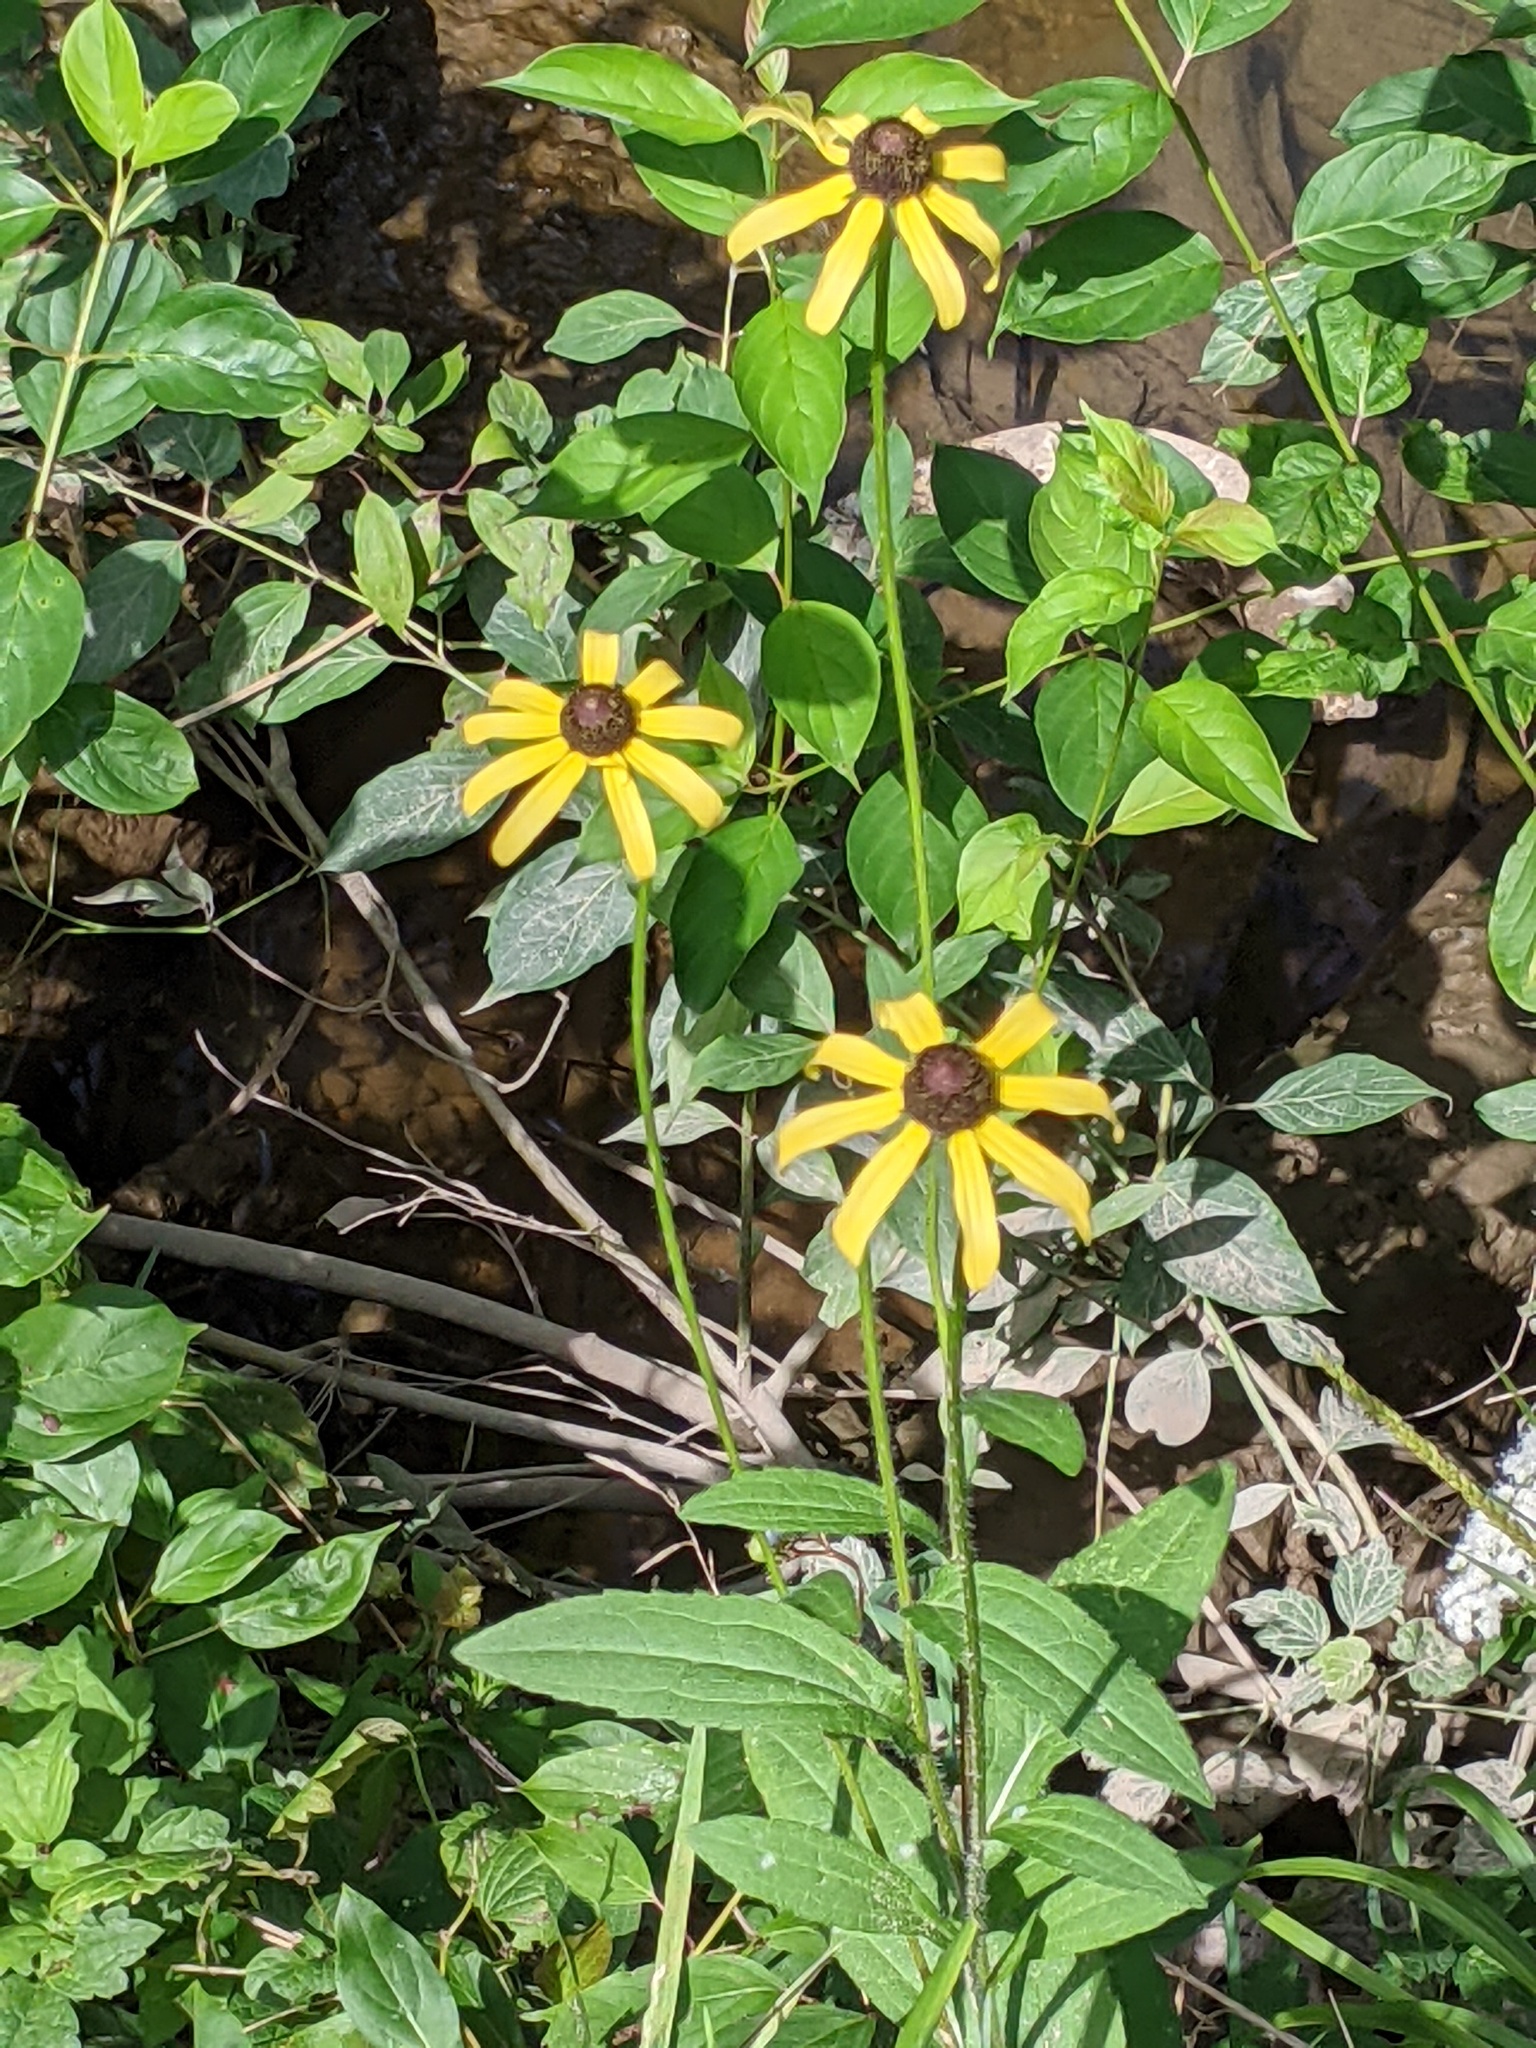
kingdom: Plantae
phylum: Tracheophyta
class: Magnoliopsida
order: Asterales
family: Asteraceae
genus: Rudbeckia
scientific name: Rudbeckia hirta
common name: Black-eyed-susan
